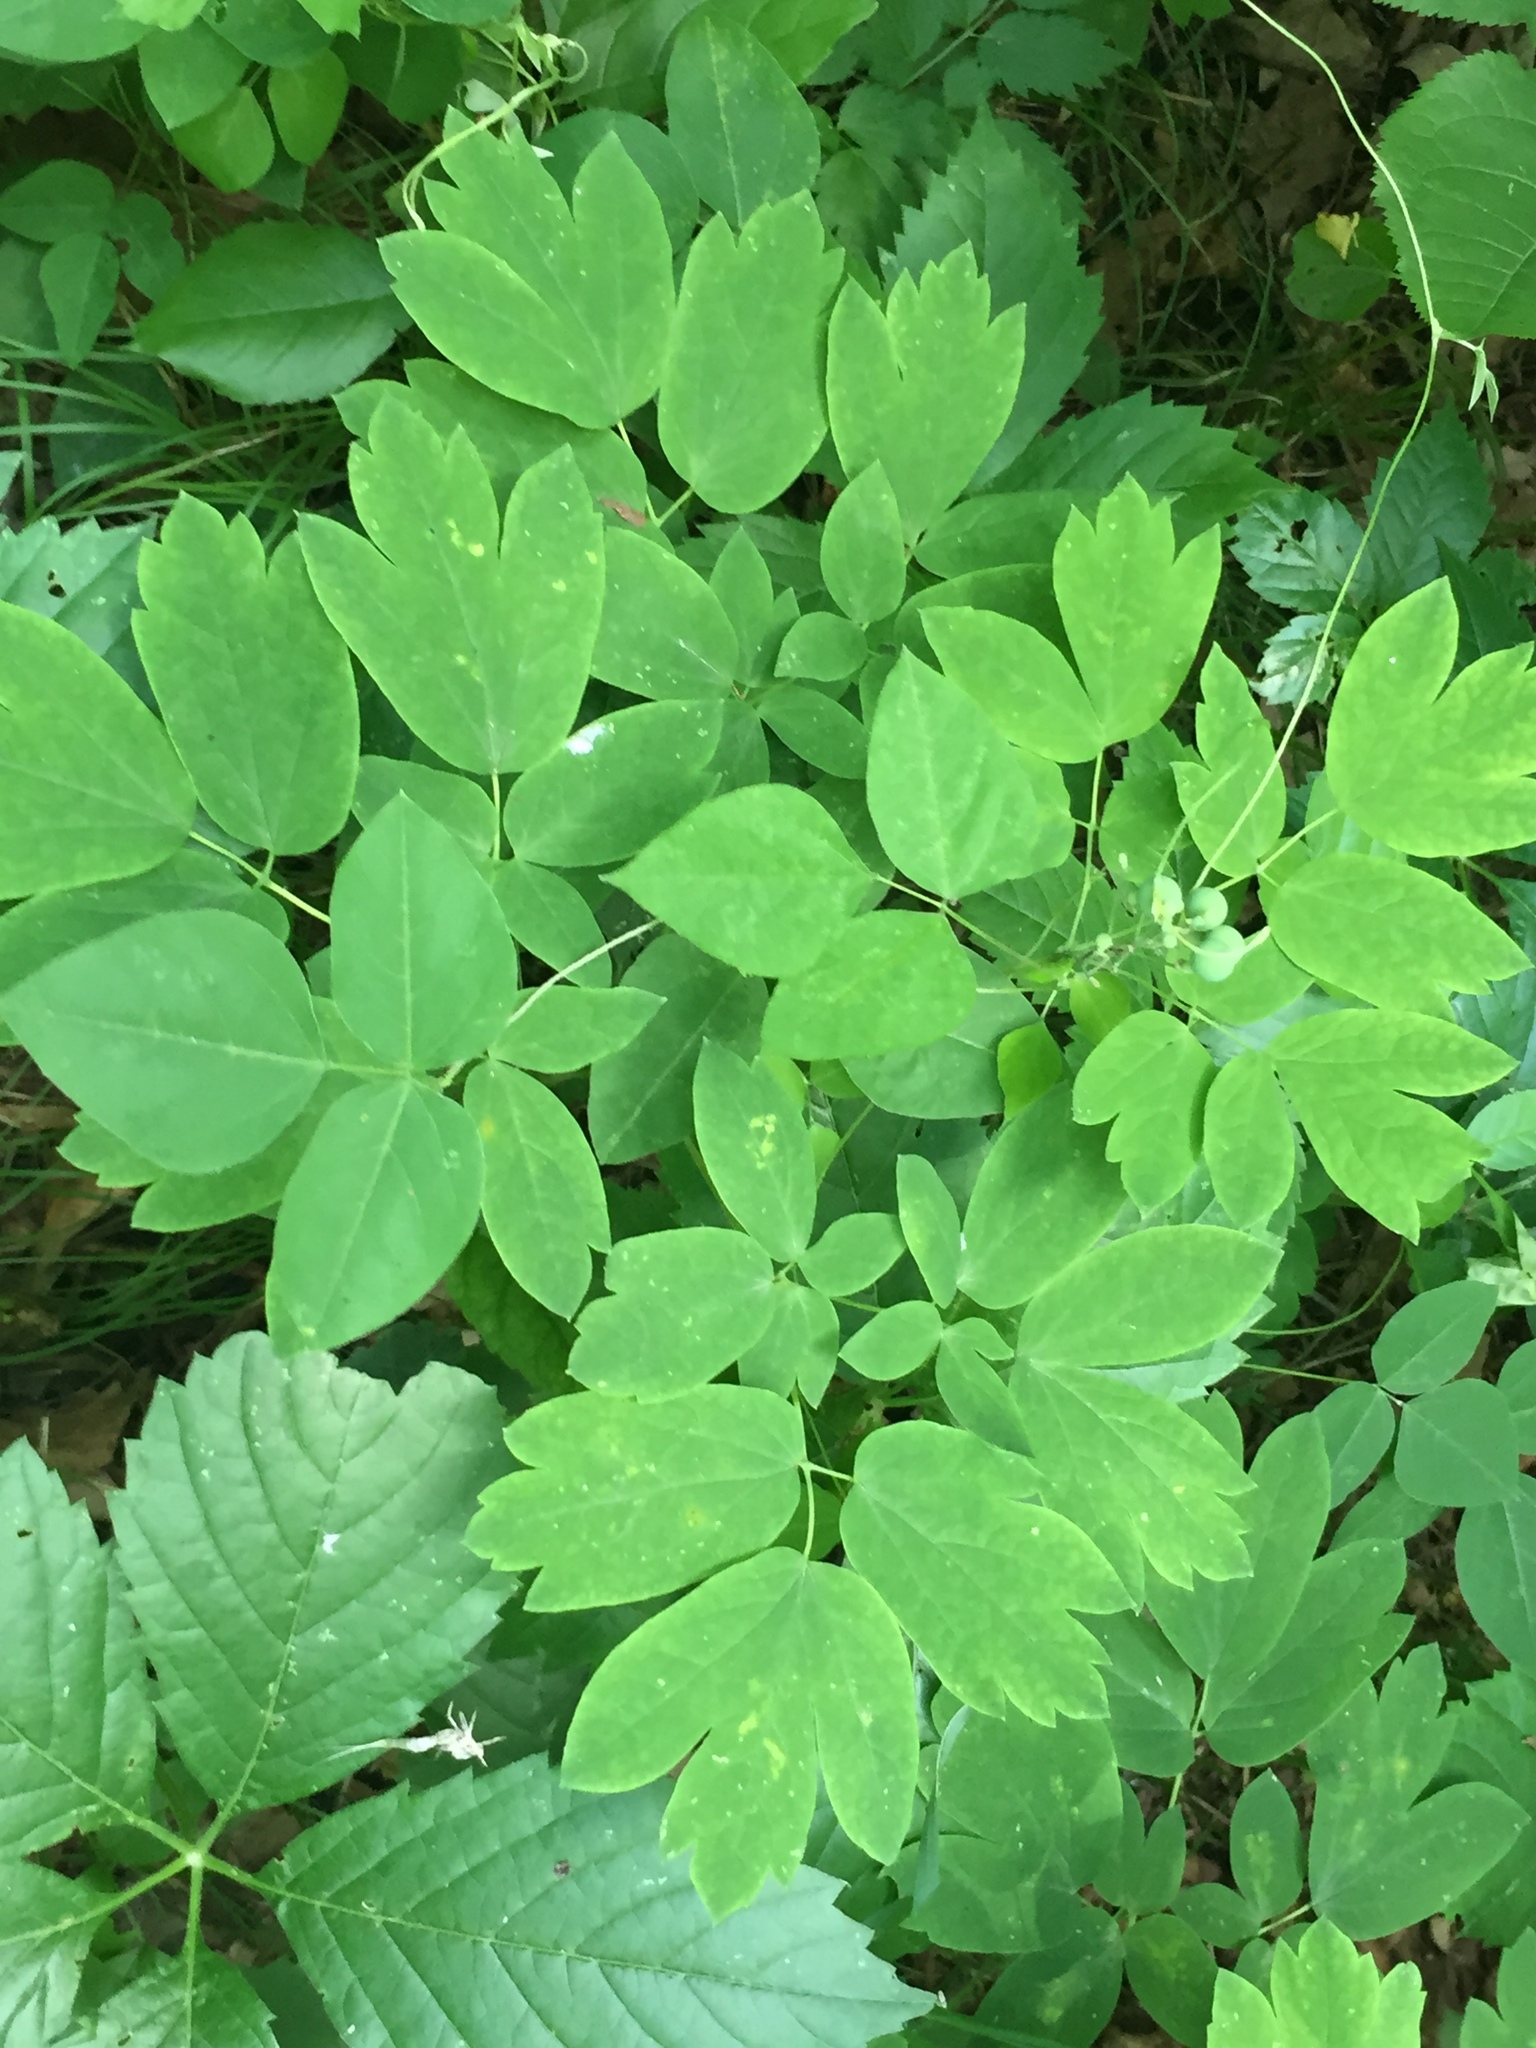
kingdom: Plantae
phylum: Tracheophyta
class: Magnoliopsida
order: Ranunculales
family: Berberidaceae
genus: Caulophyllum
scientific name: Caulophyllum thalictroides
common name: Blue cohosh
